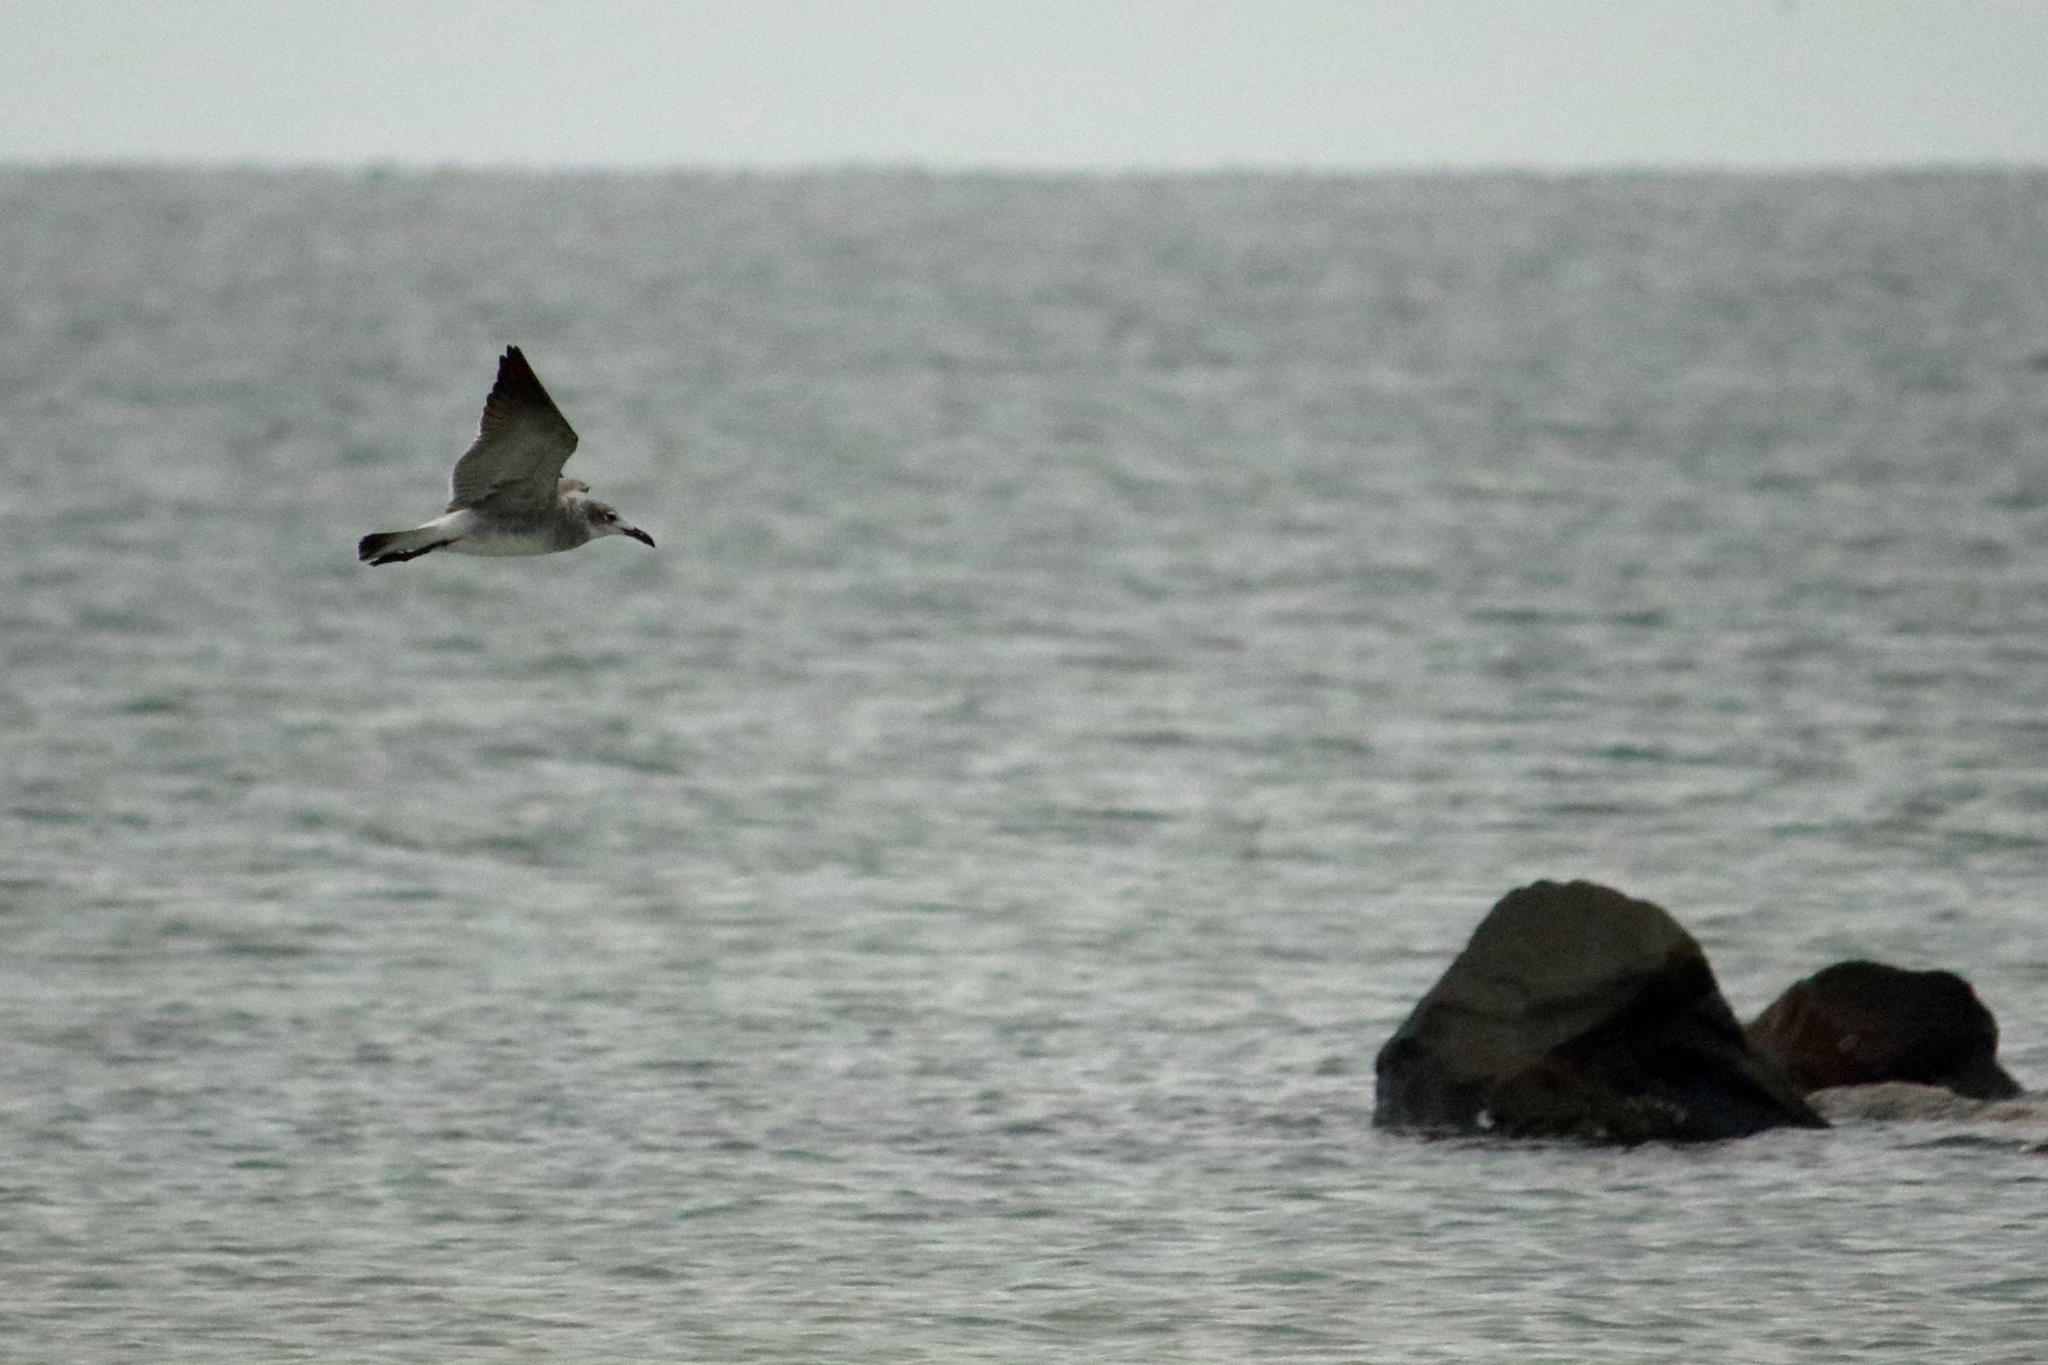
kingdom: Animalia
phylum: Chordata
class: Aves
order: Charadriiformes
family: Laridae
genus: Leucophaeus
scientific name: Leucophaeus atricilla
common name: Laughing gull
